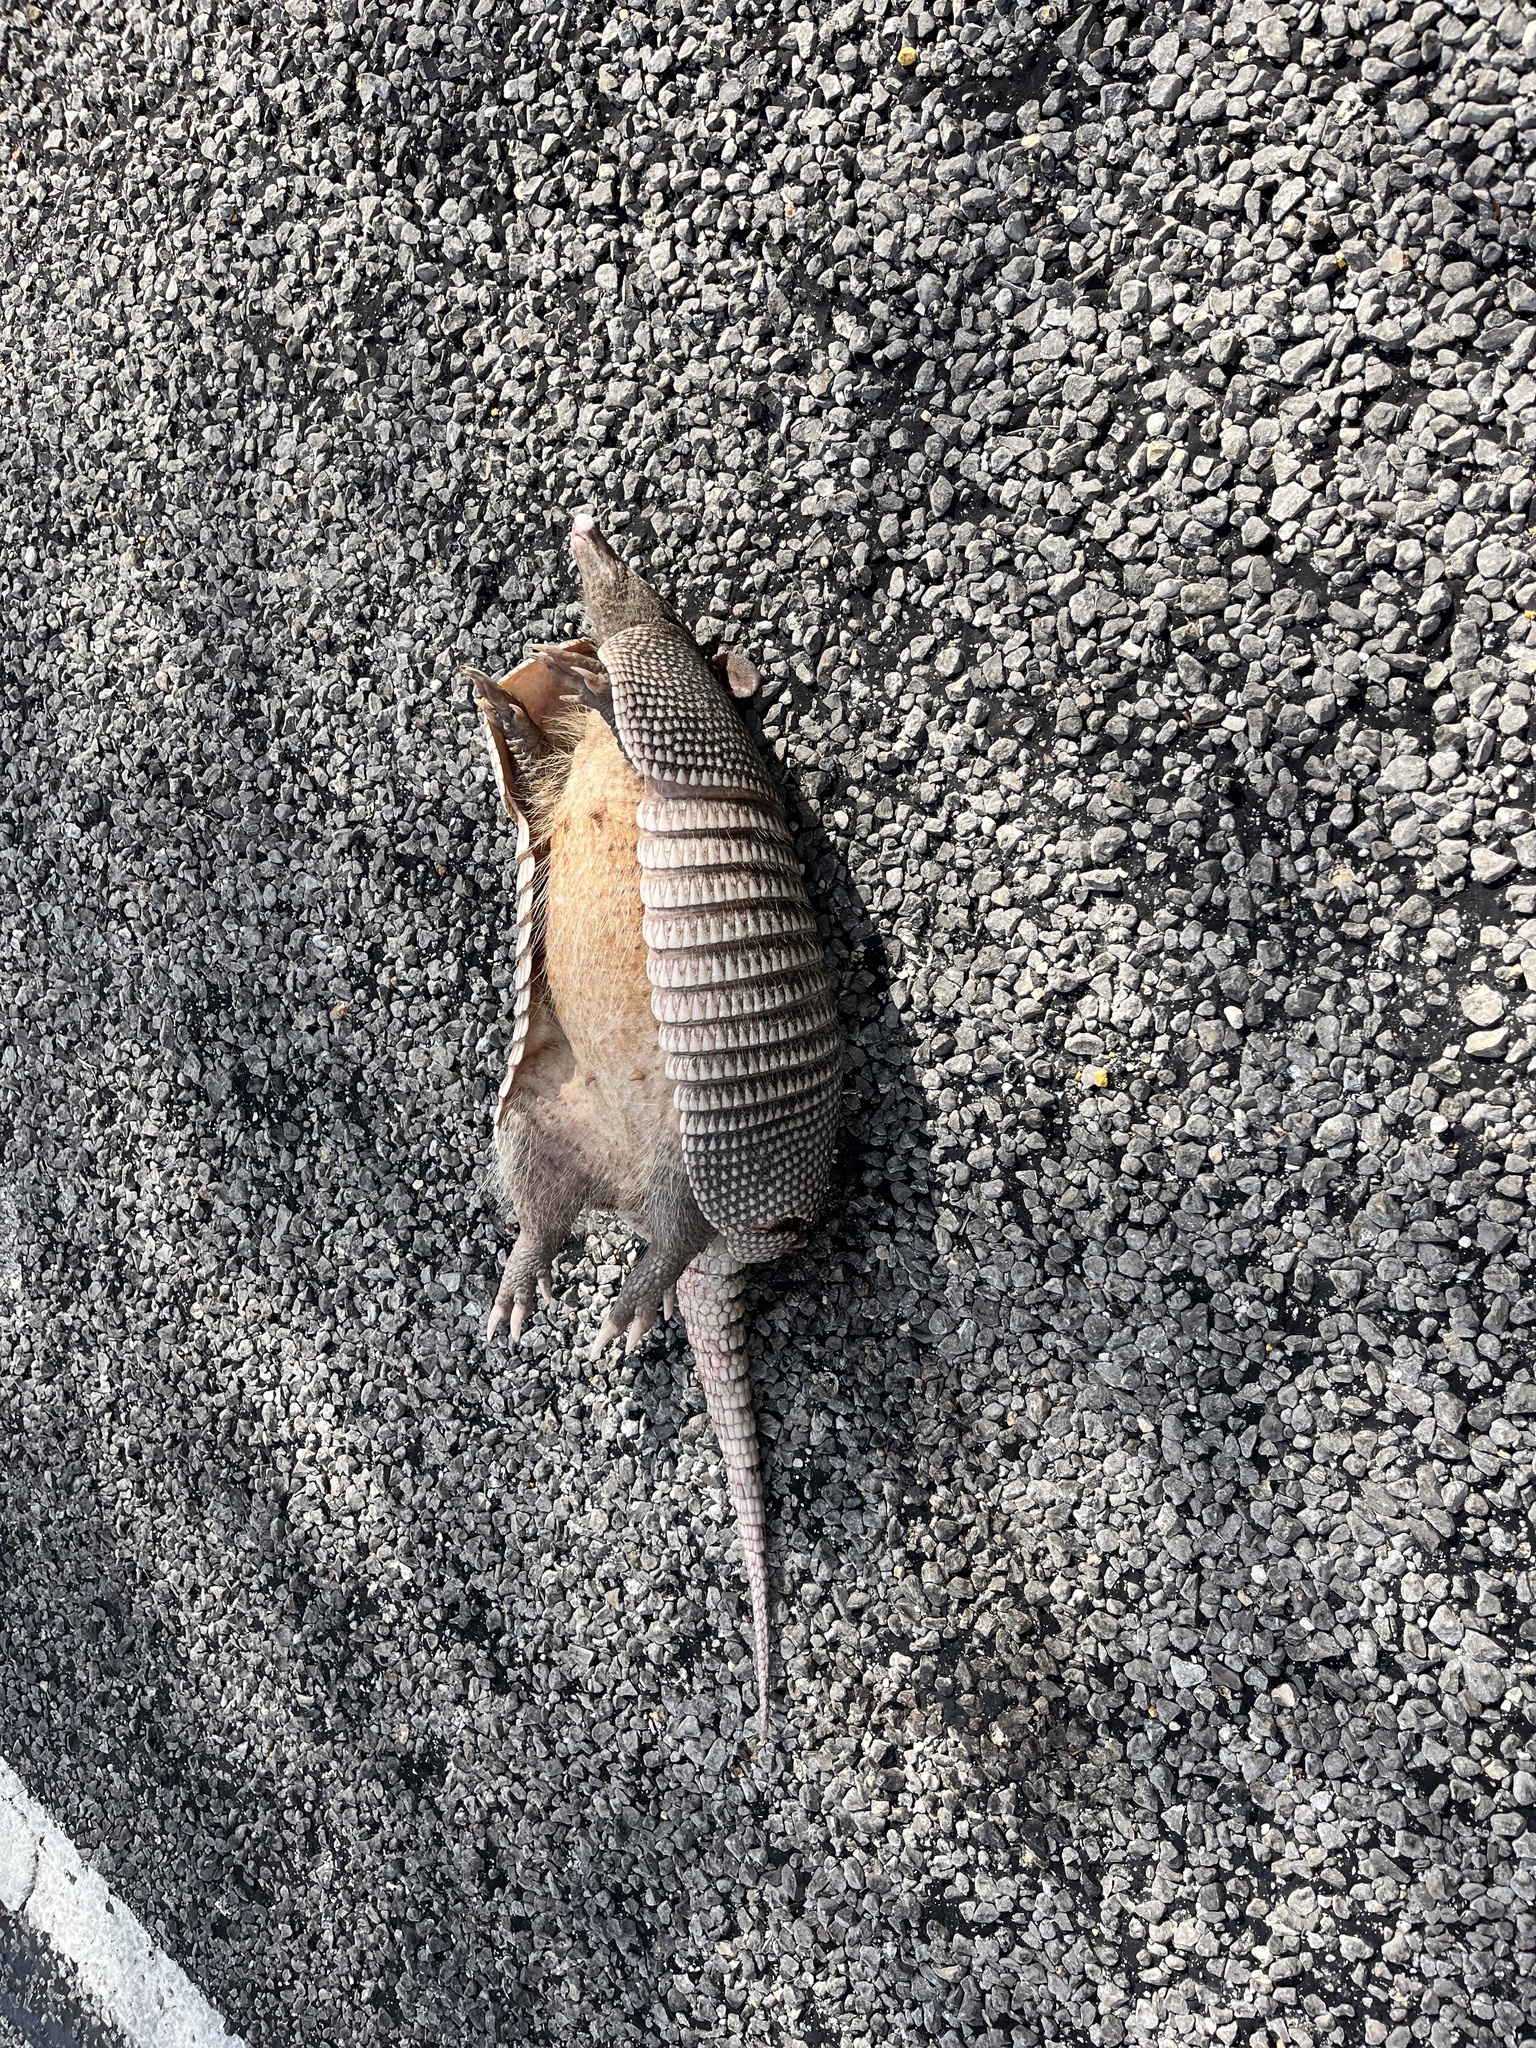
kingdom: Animalia
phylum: Chordata
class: Mammalia
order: Cingulata
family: Dasypodidae
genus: Dasypus
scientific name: Dasypus novemcinctus
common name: Nine-banded armadillo
